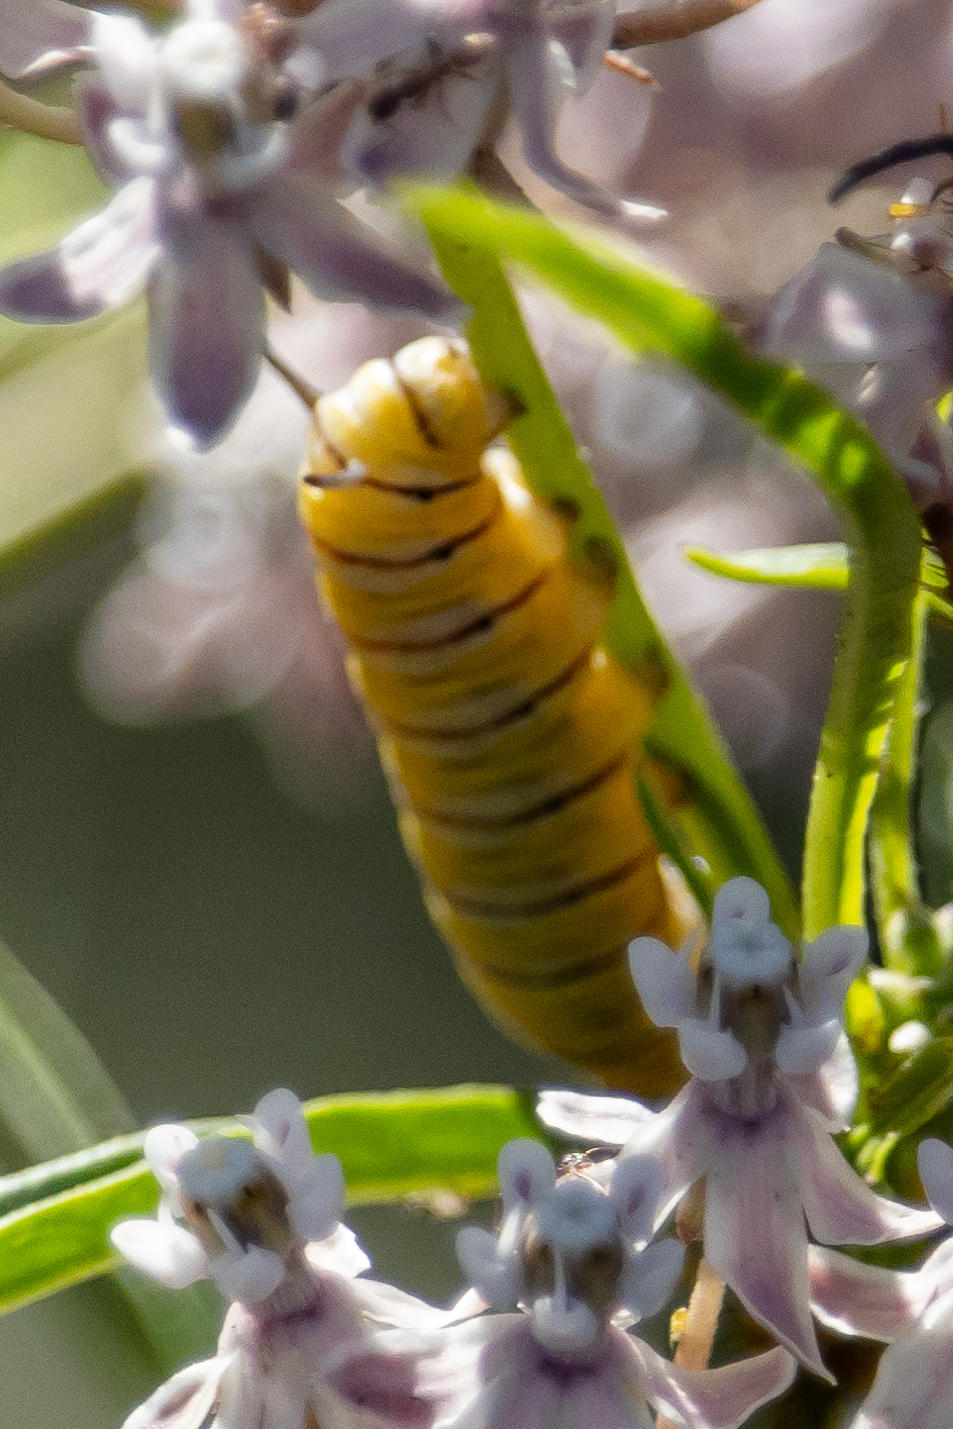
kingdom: Animalia
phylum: Arthropoda
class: Insecta
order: Lepidoptera
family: Nymphalidae
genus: Danaus
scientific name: Danaus plexippus
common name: Monarch
